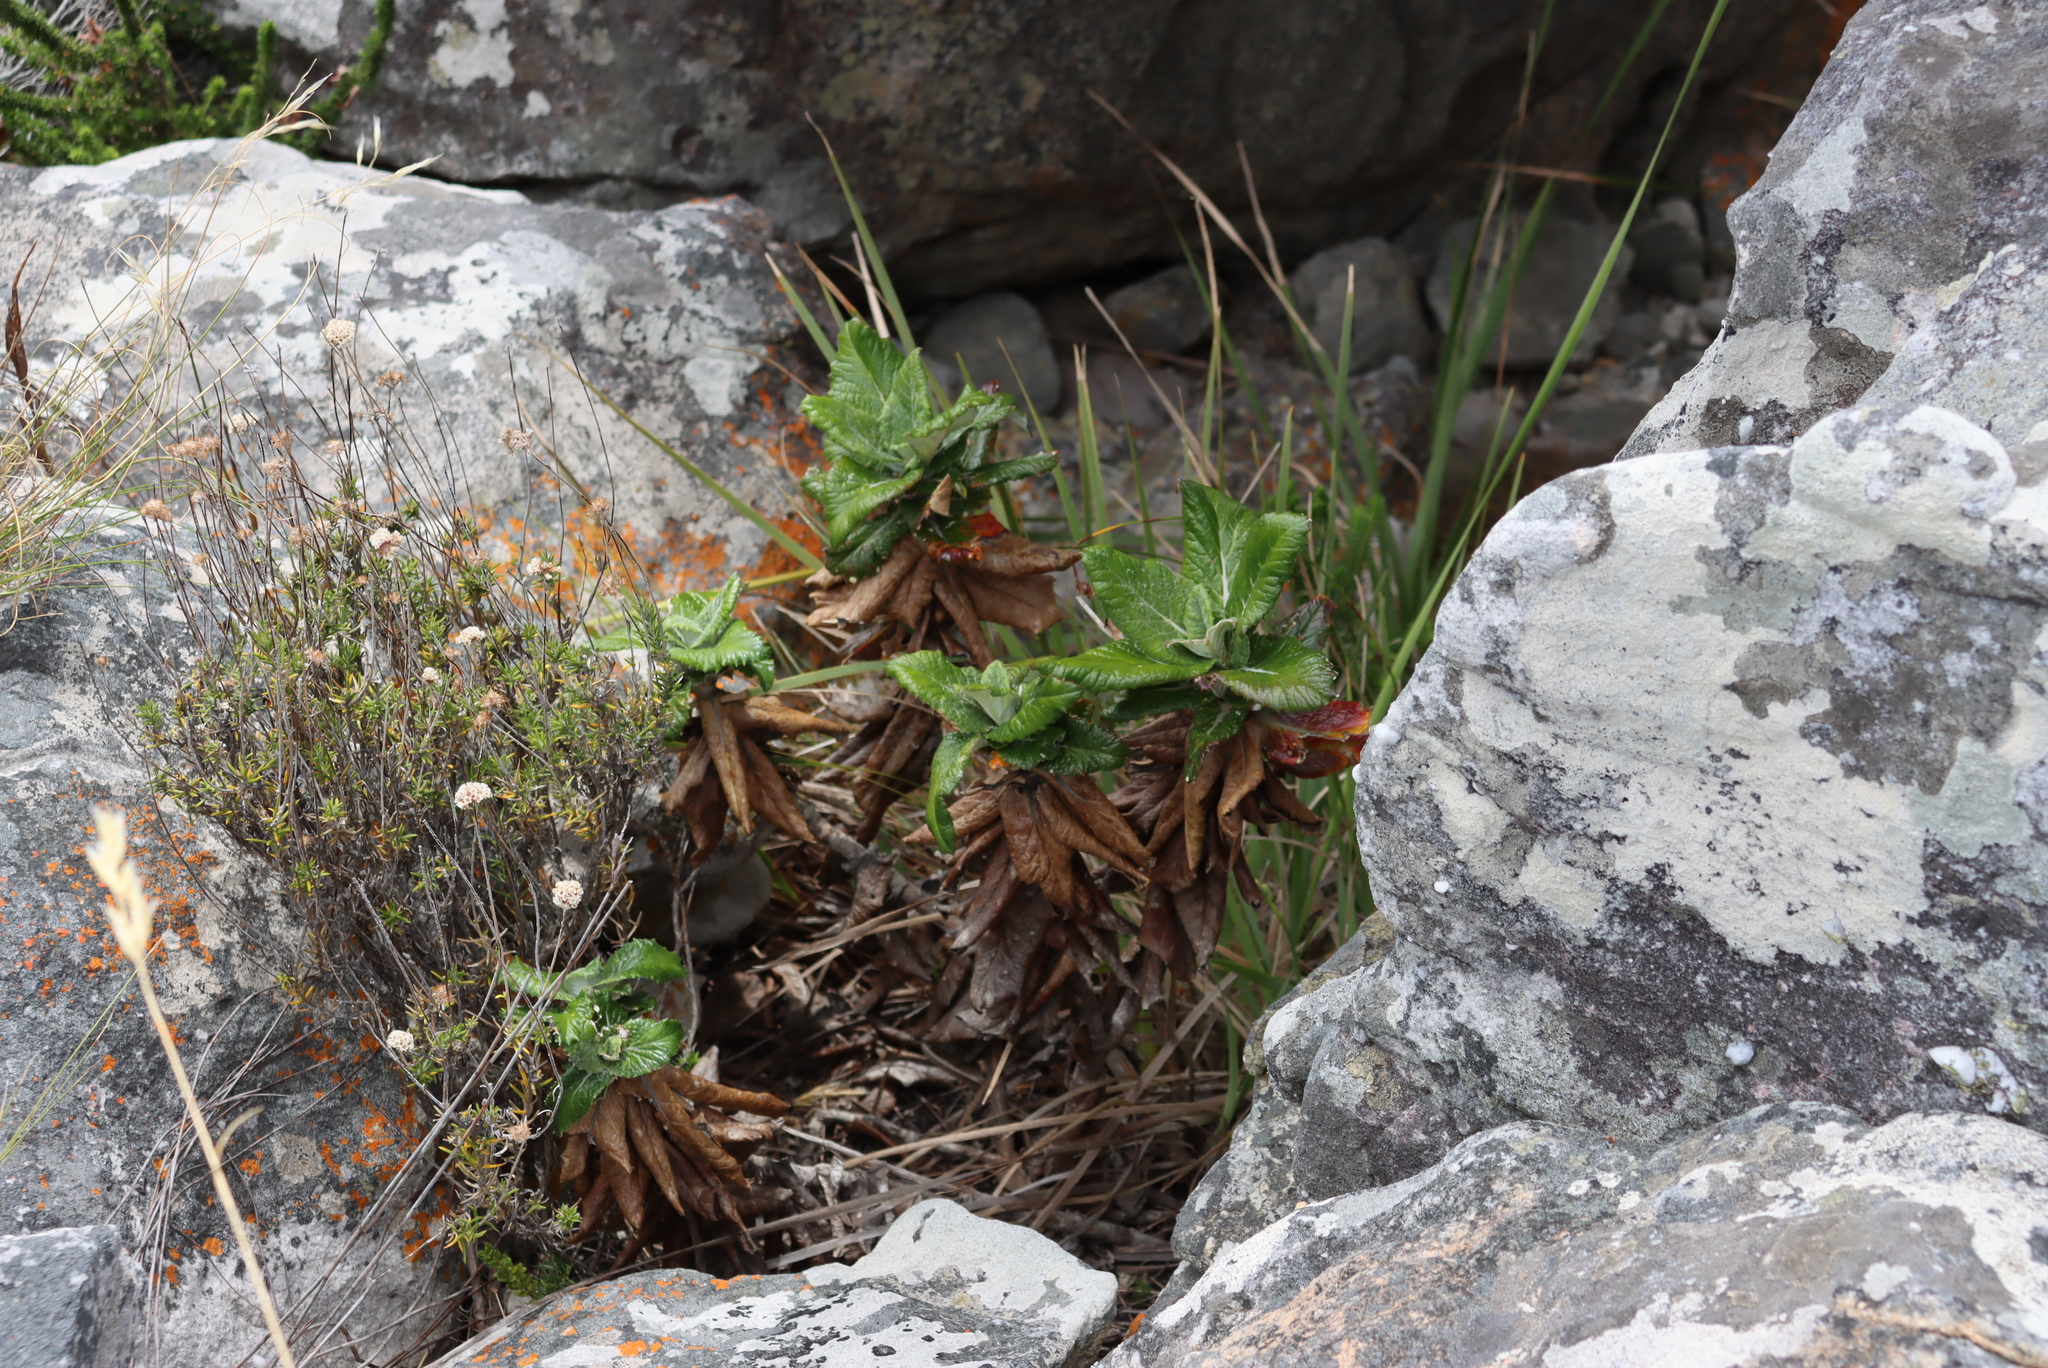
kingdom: Plantae
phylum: Tracheophyta
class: Magnoliopsida
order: Apiales
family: Apiaceae
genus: Hermas
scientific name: Hermas villosa
